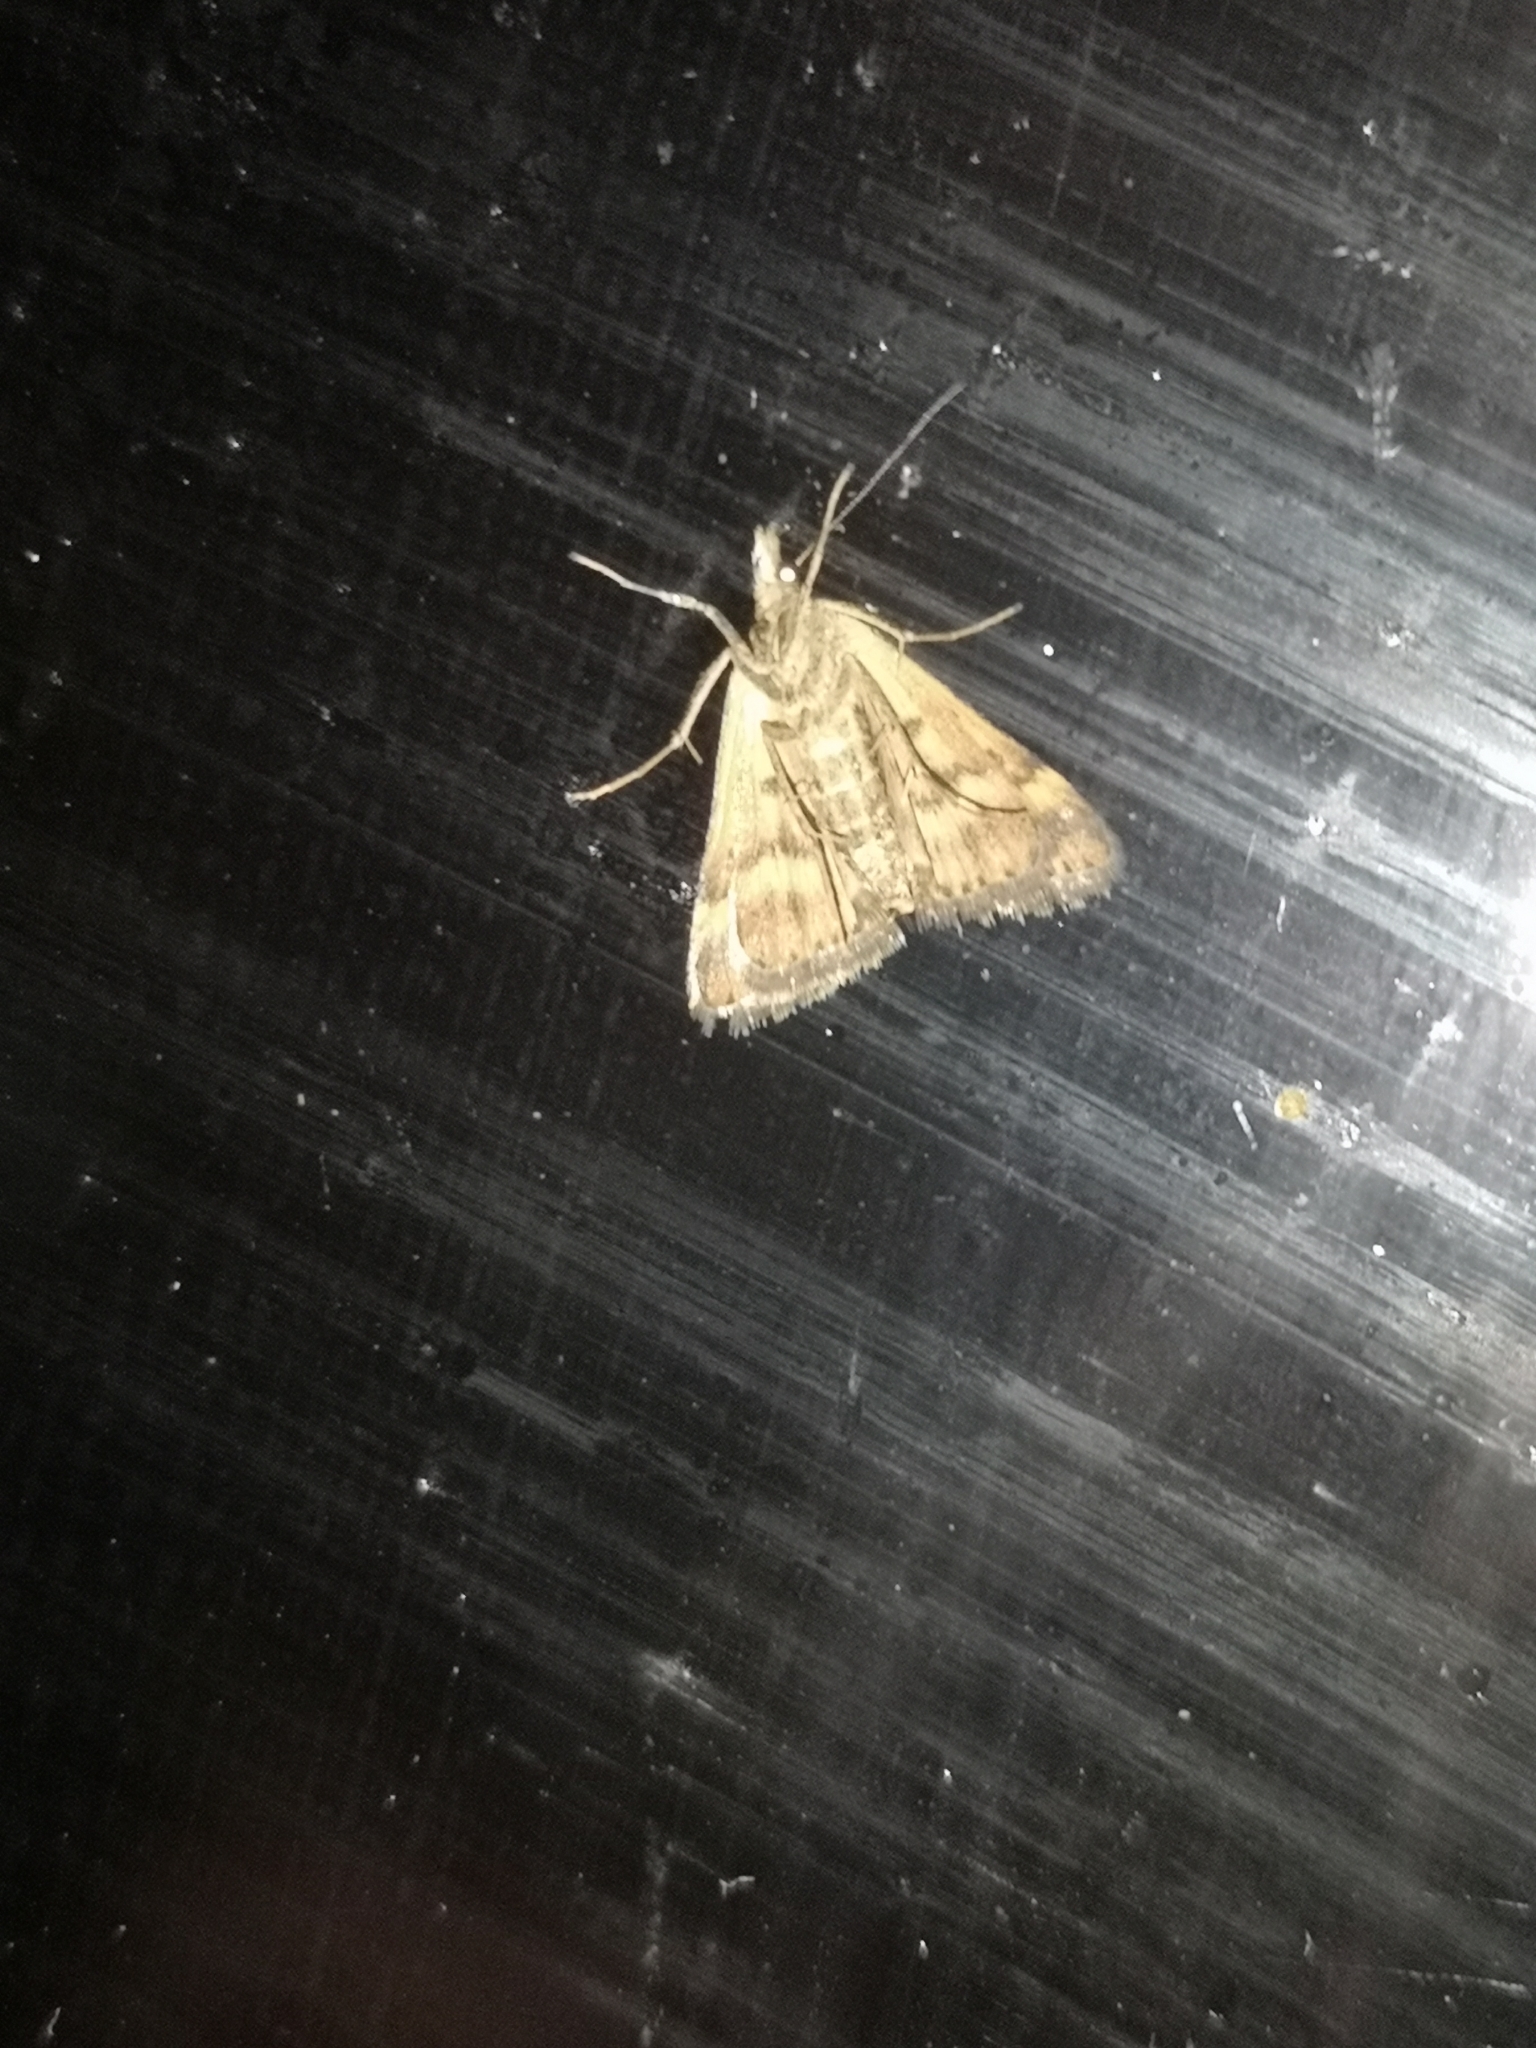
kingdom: Animalia
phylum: Arthropoda
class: Insecta
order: Lepidoptera
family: Crambidae
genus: Pyrausta
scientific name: Pyrausta despicata
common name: Straw-barred pearl
